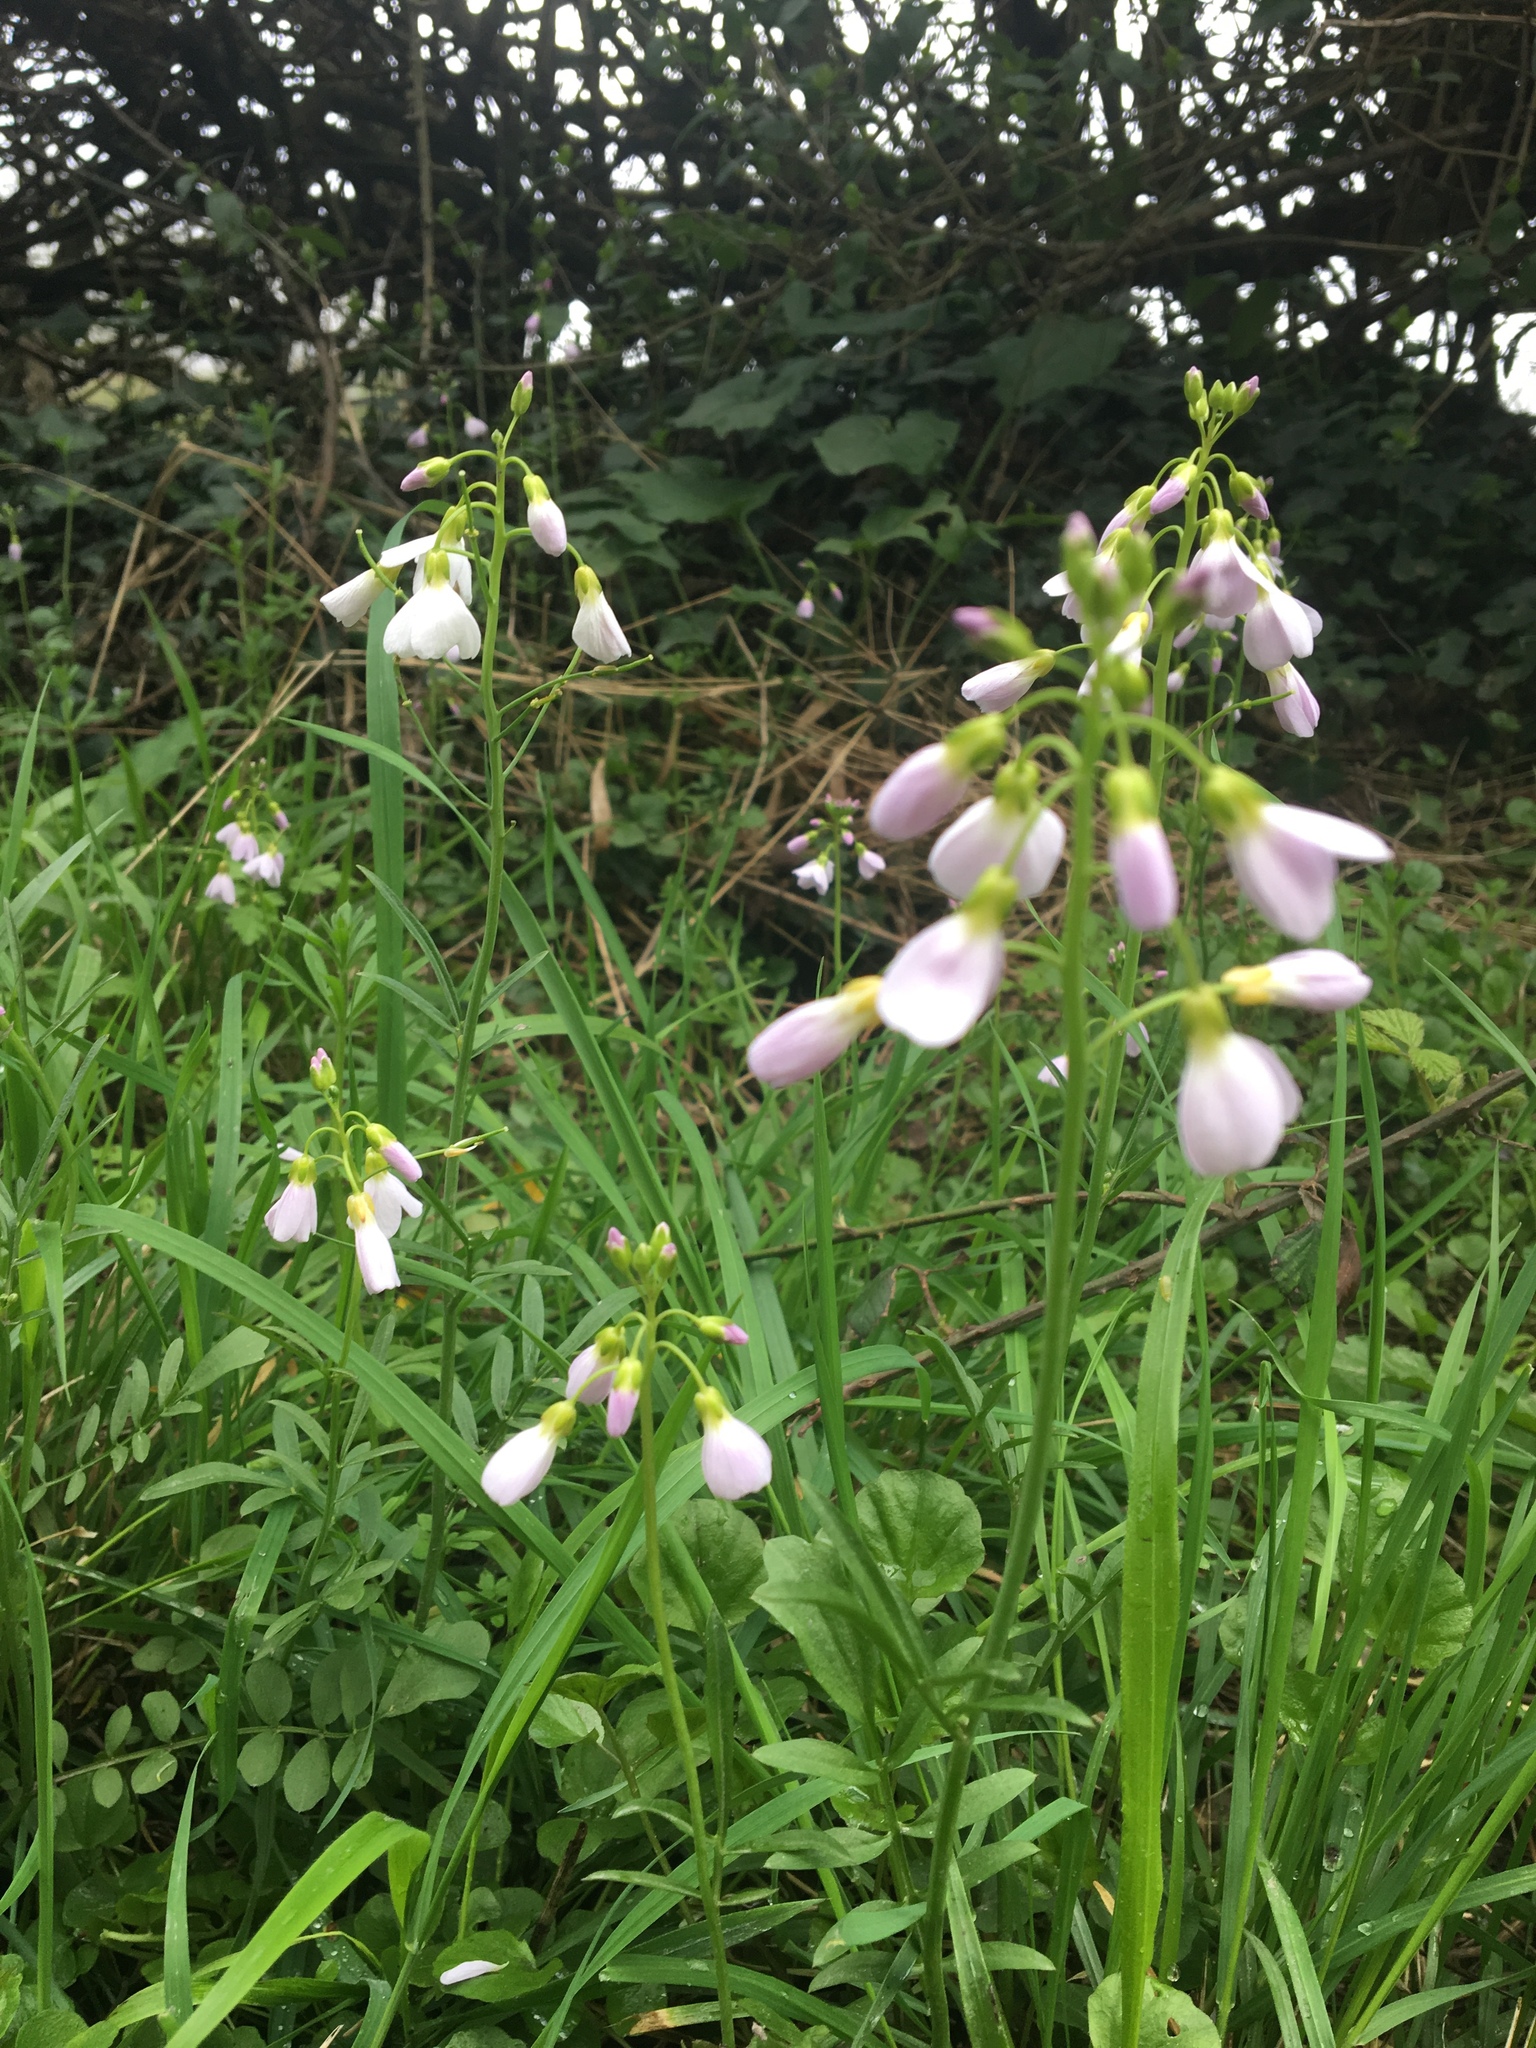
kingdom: Plantae
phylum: Tracheophyta
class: Magnoliopsida
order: Brassicales
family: Brassicaceae
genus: Cardamine
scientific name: Cardamine pratensis
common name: Cuckoo flower
